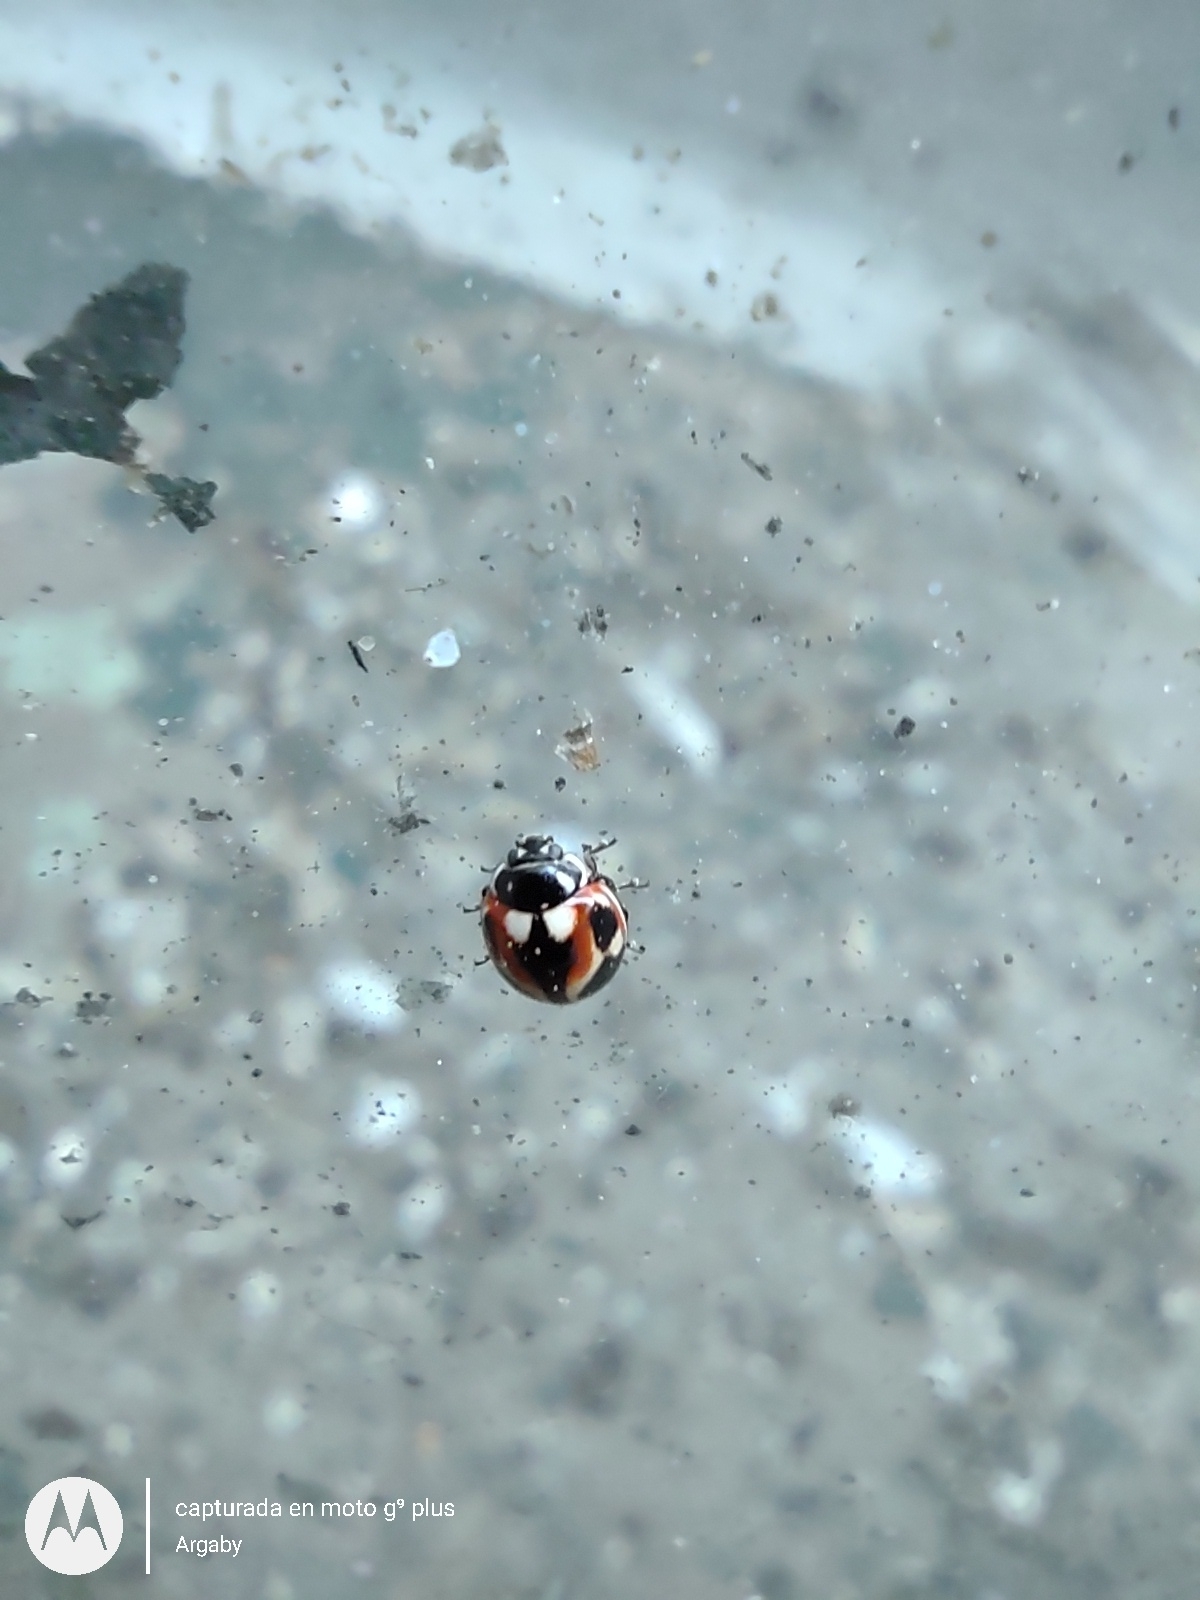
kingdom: Animalia
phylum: Arthropoda
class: Insecta
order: Coleoptera
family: Coccinellidae
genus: Cycloneda
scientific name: Cycloneda ancoralis
